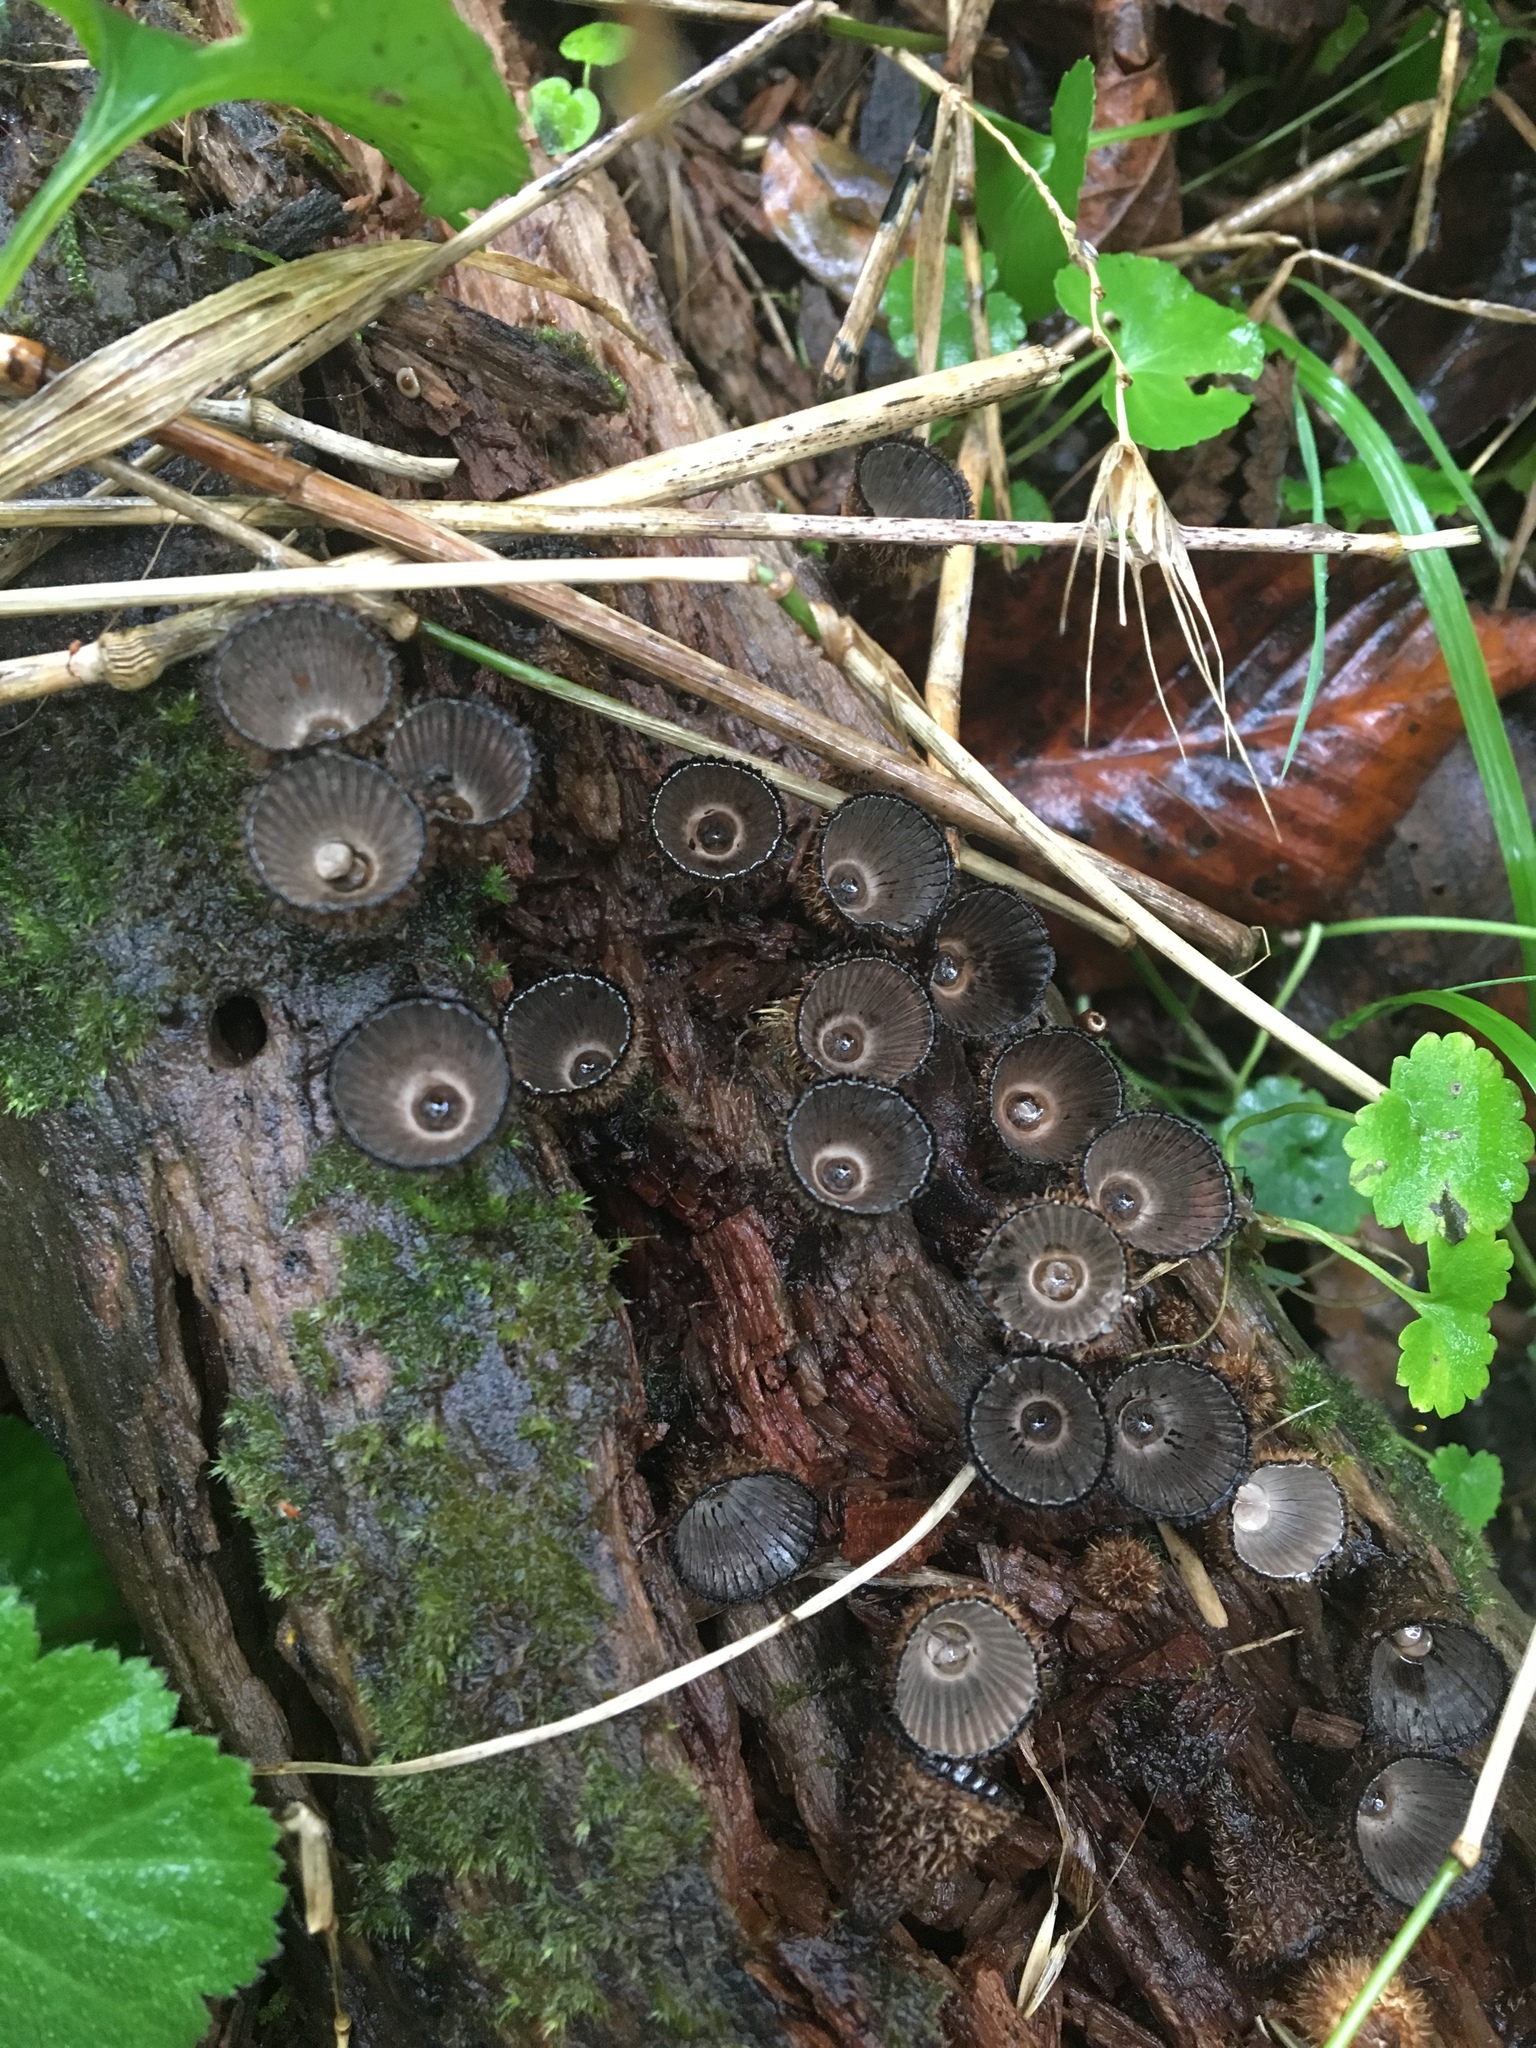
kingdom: Fungi
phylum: Basidiomycota
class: Agaricomycetes
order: Agaricales
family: Agaricaceae
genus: Cyathus
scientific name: Cyathus striatus
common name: Fluted bird's nest
